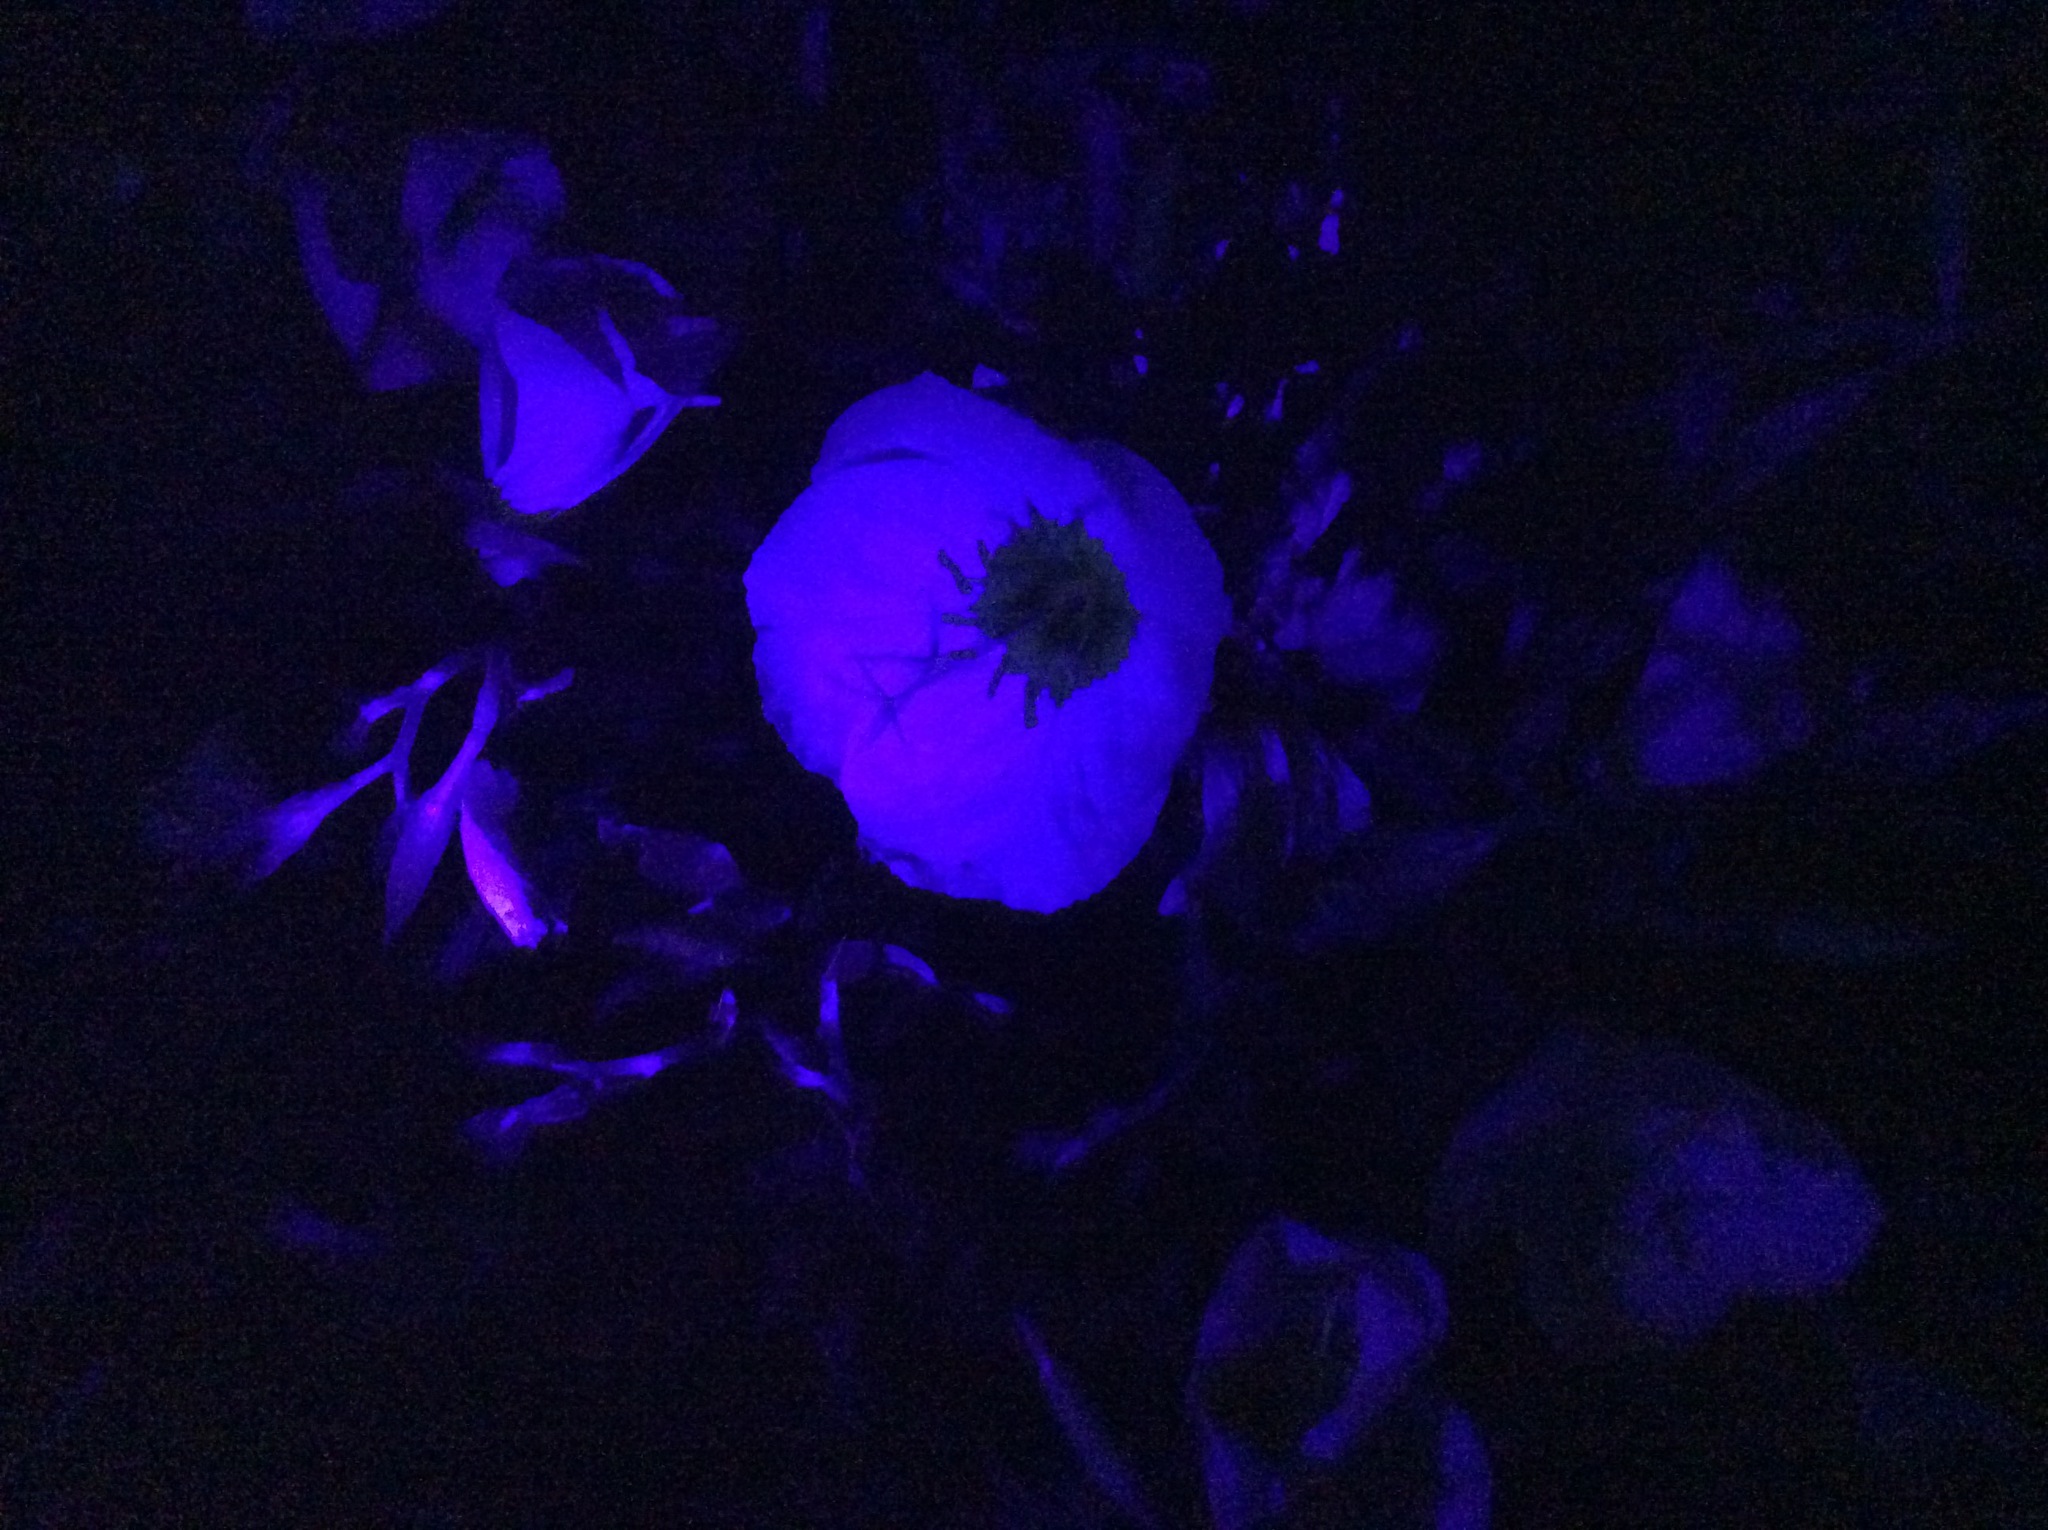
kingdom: Plantae
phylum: Tracheophyta
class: Magnoliopsida
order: Myrtales
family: Onagraceae
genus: Oenothera
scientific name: Oenothera speciosa
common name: White evening-primrose
